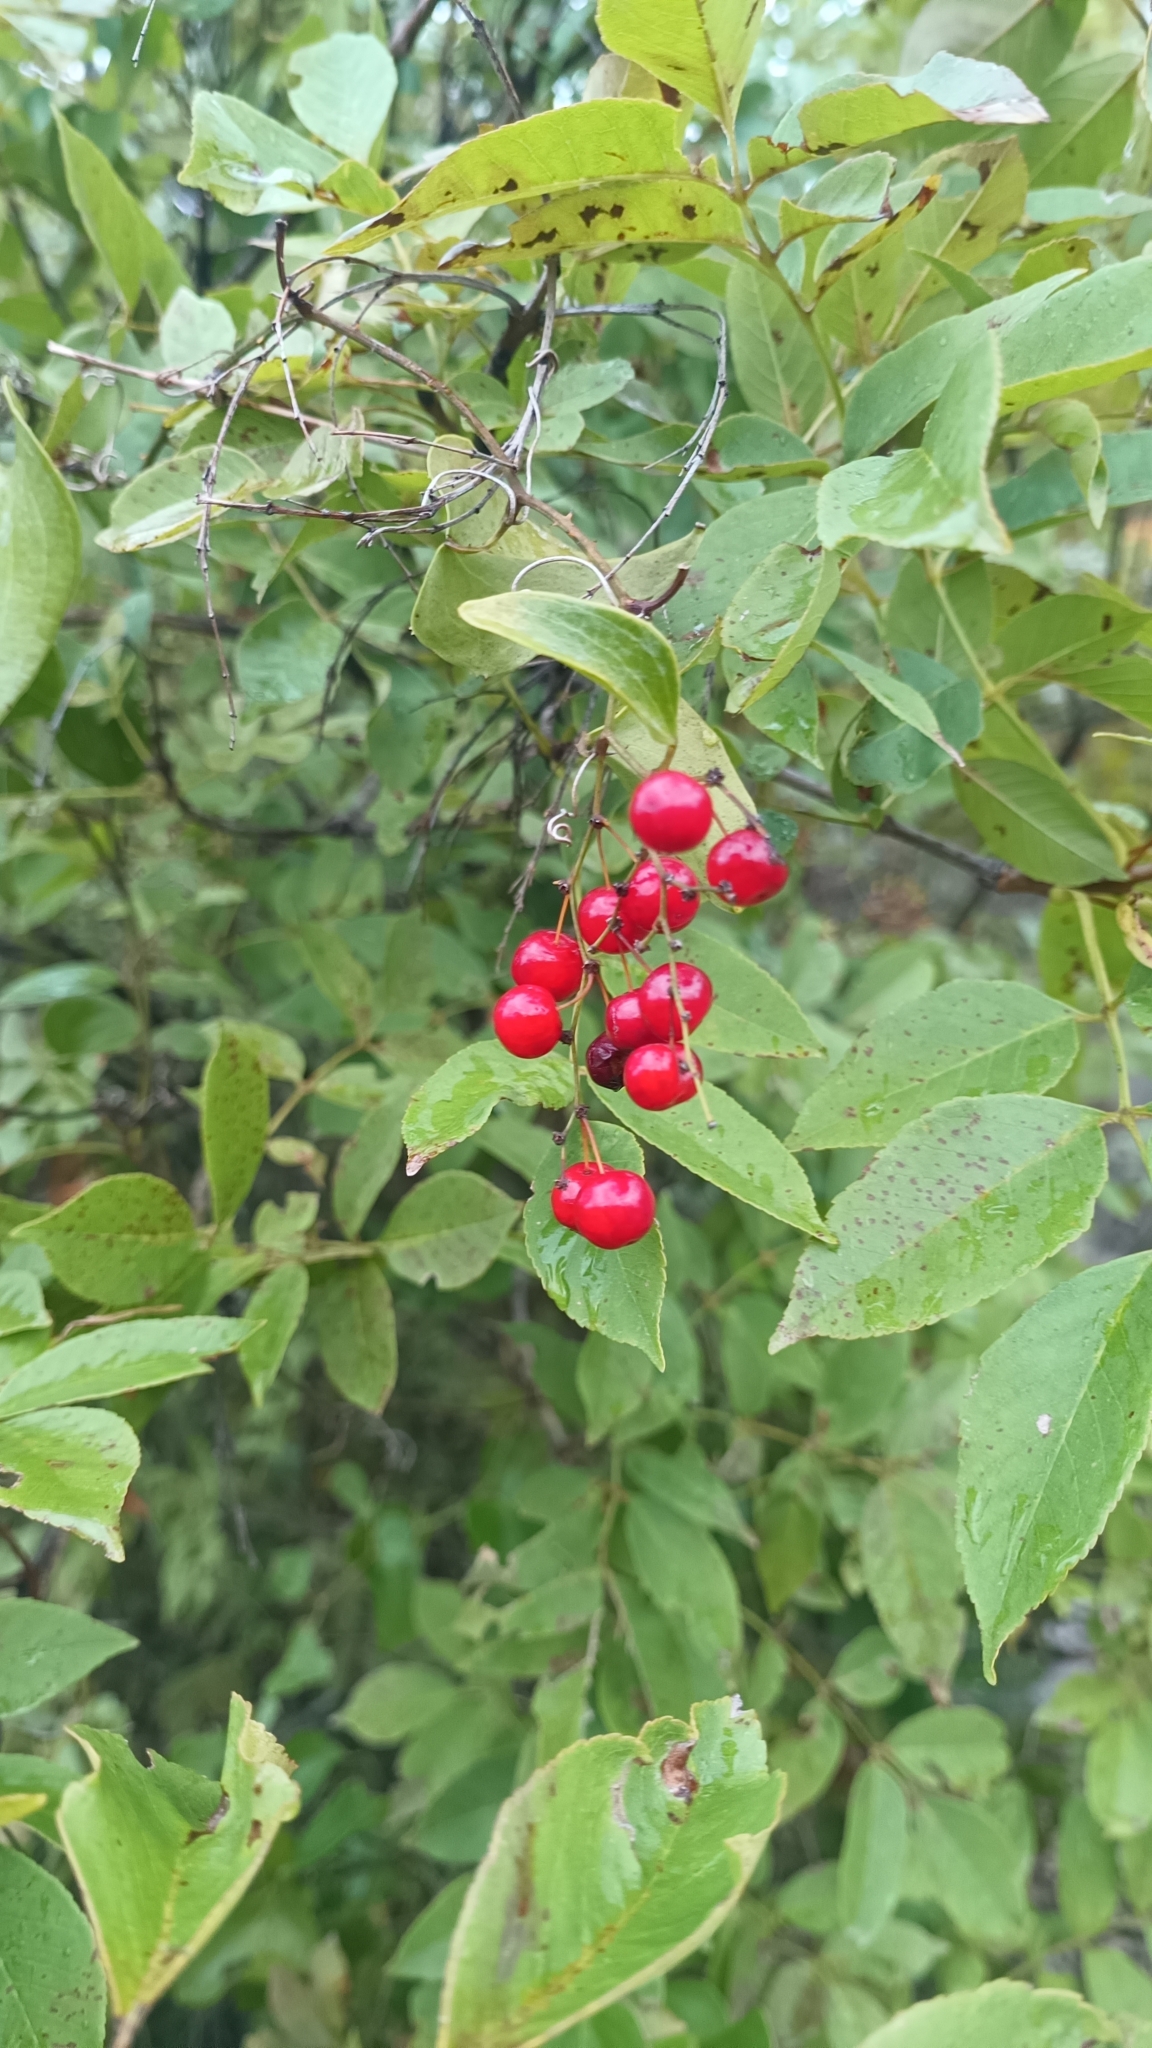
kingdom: Plantae
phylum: Tracheophyta
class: Liliopsida
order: Liliales
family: Smilacaceae
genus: Smilax
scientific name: Smilax aspera
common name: Common smilax
